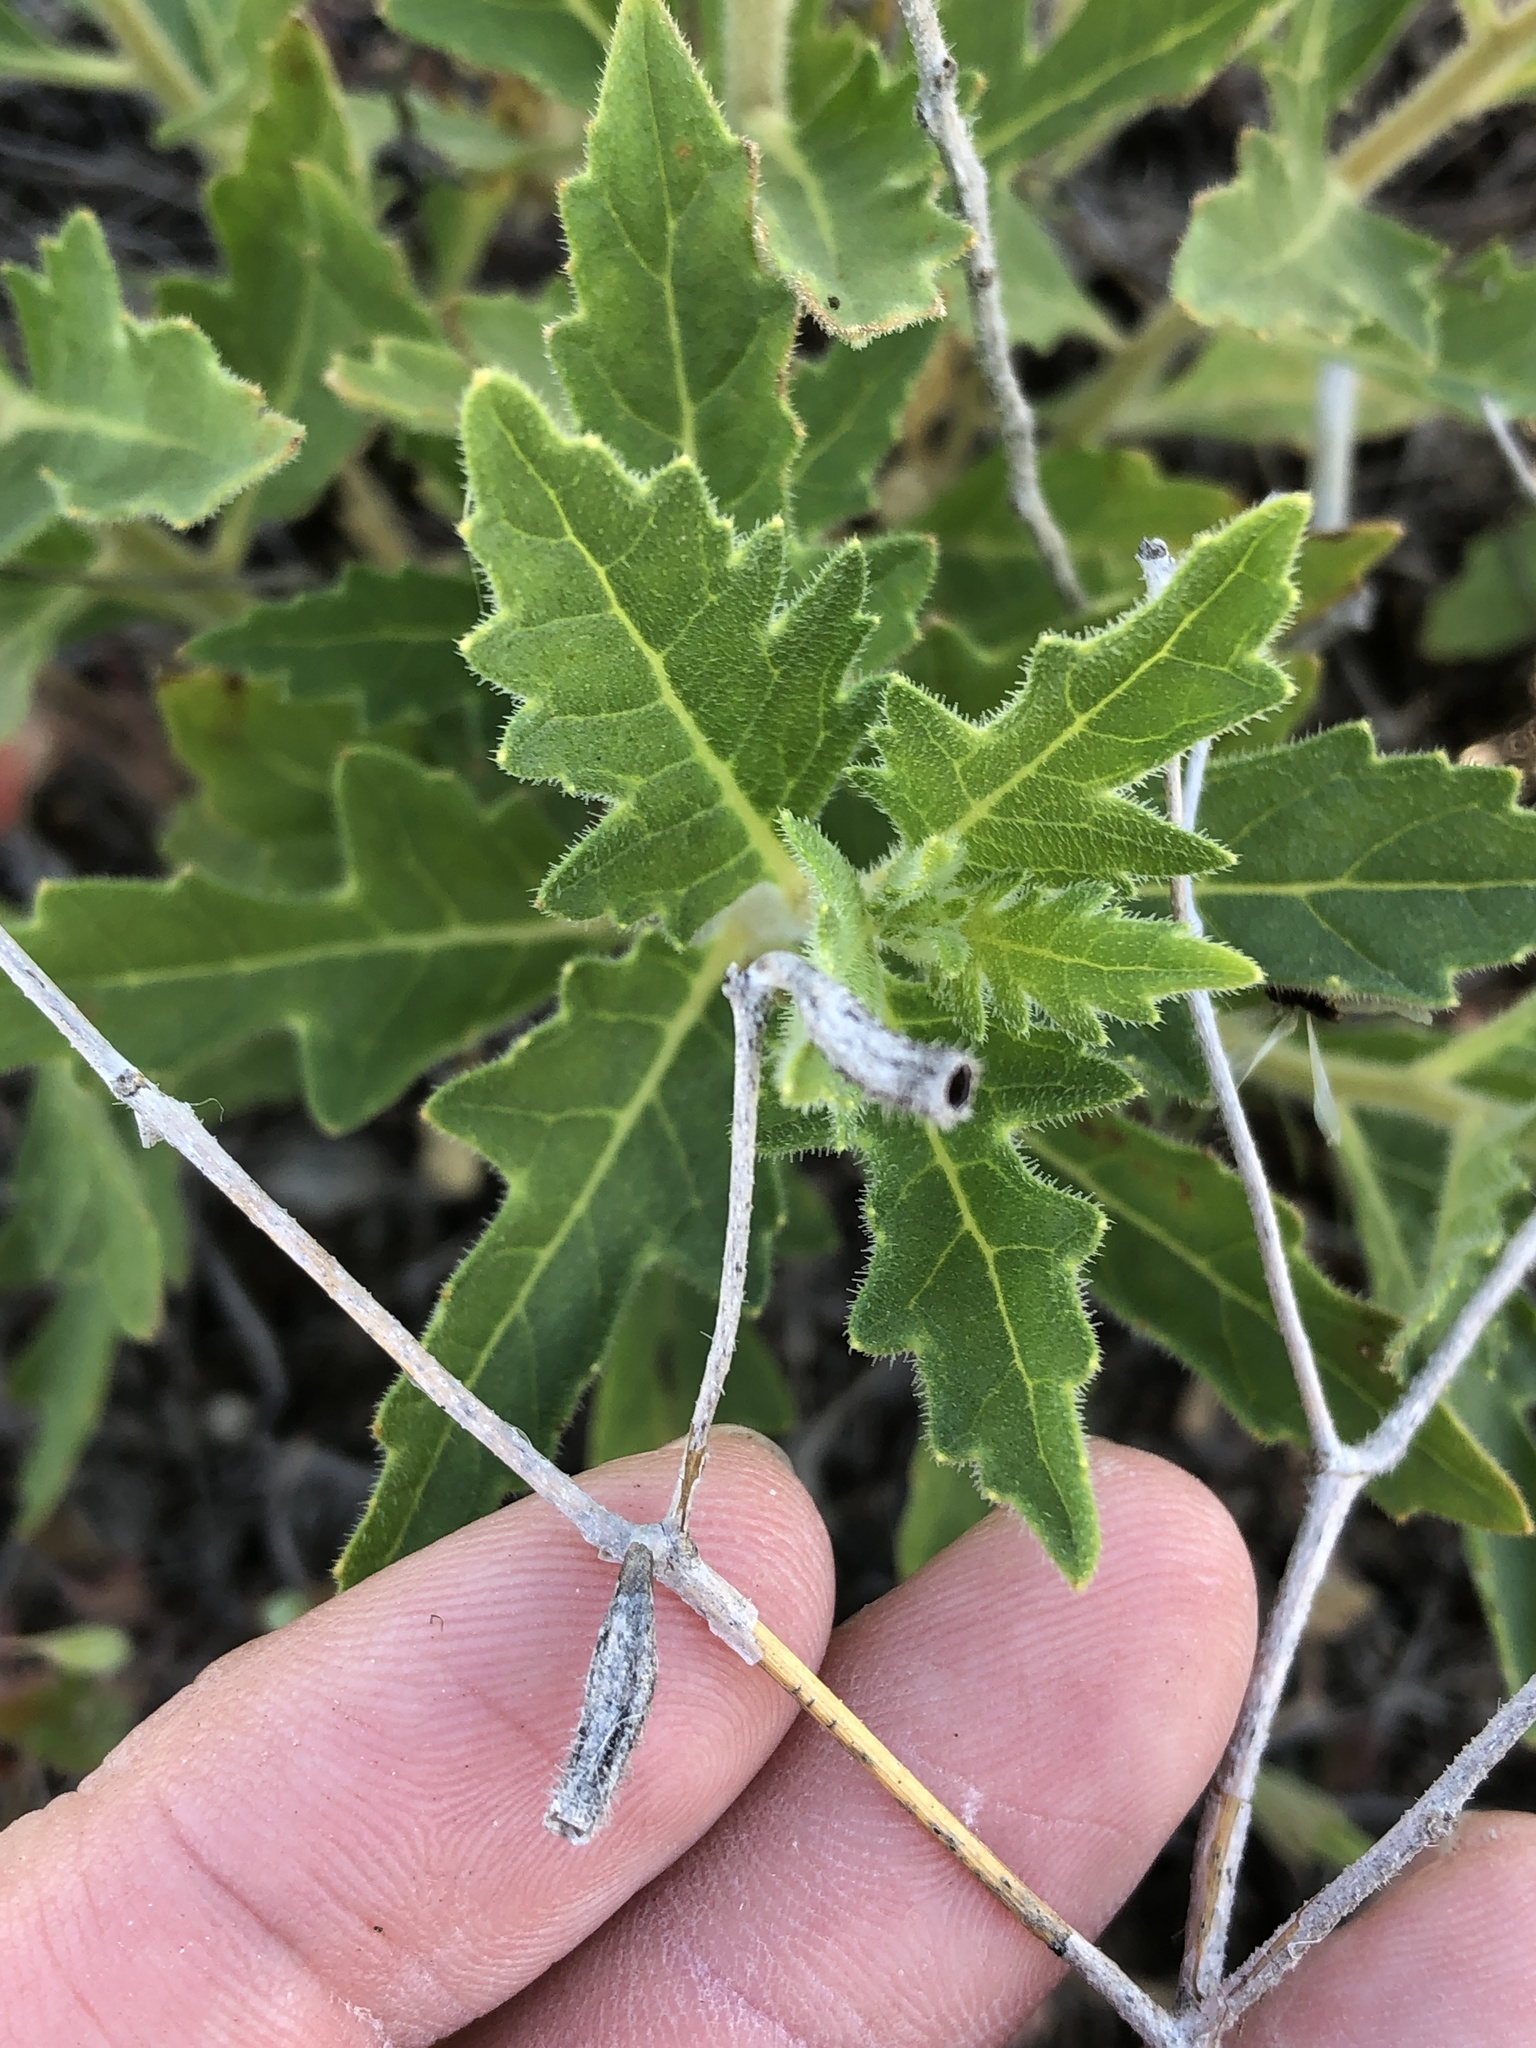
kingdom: Plantae
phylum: Tracheophyta
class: Magnoliopsida
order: Cornales
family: Loasaceae
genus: Mentzelia
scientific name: Mentzelia oligosperma
